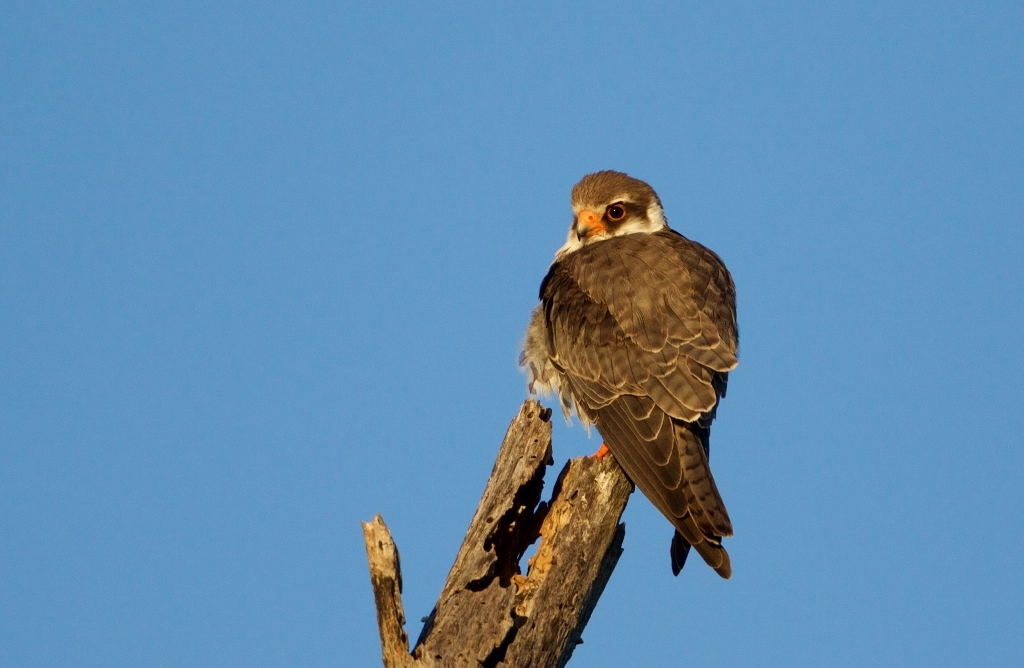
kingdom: Animalia
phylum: Chordata
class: Aves
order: Falconiformes
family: Falconidae
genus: Falco
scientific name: Falco amurensis
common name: Amur falcon
